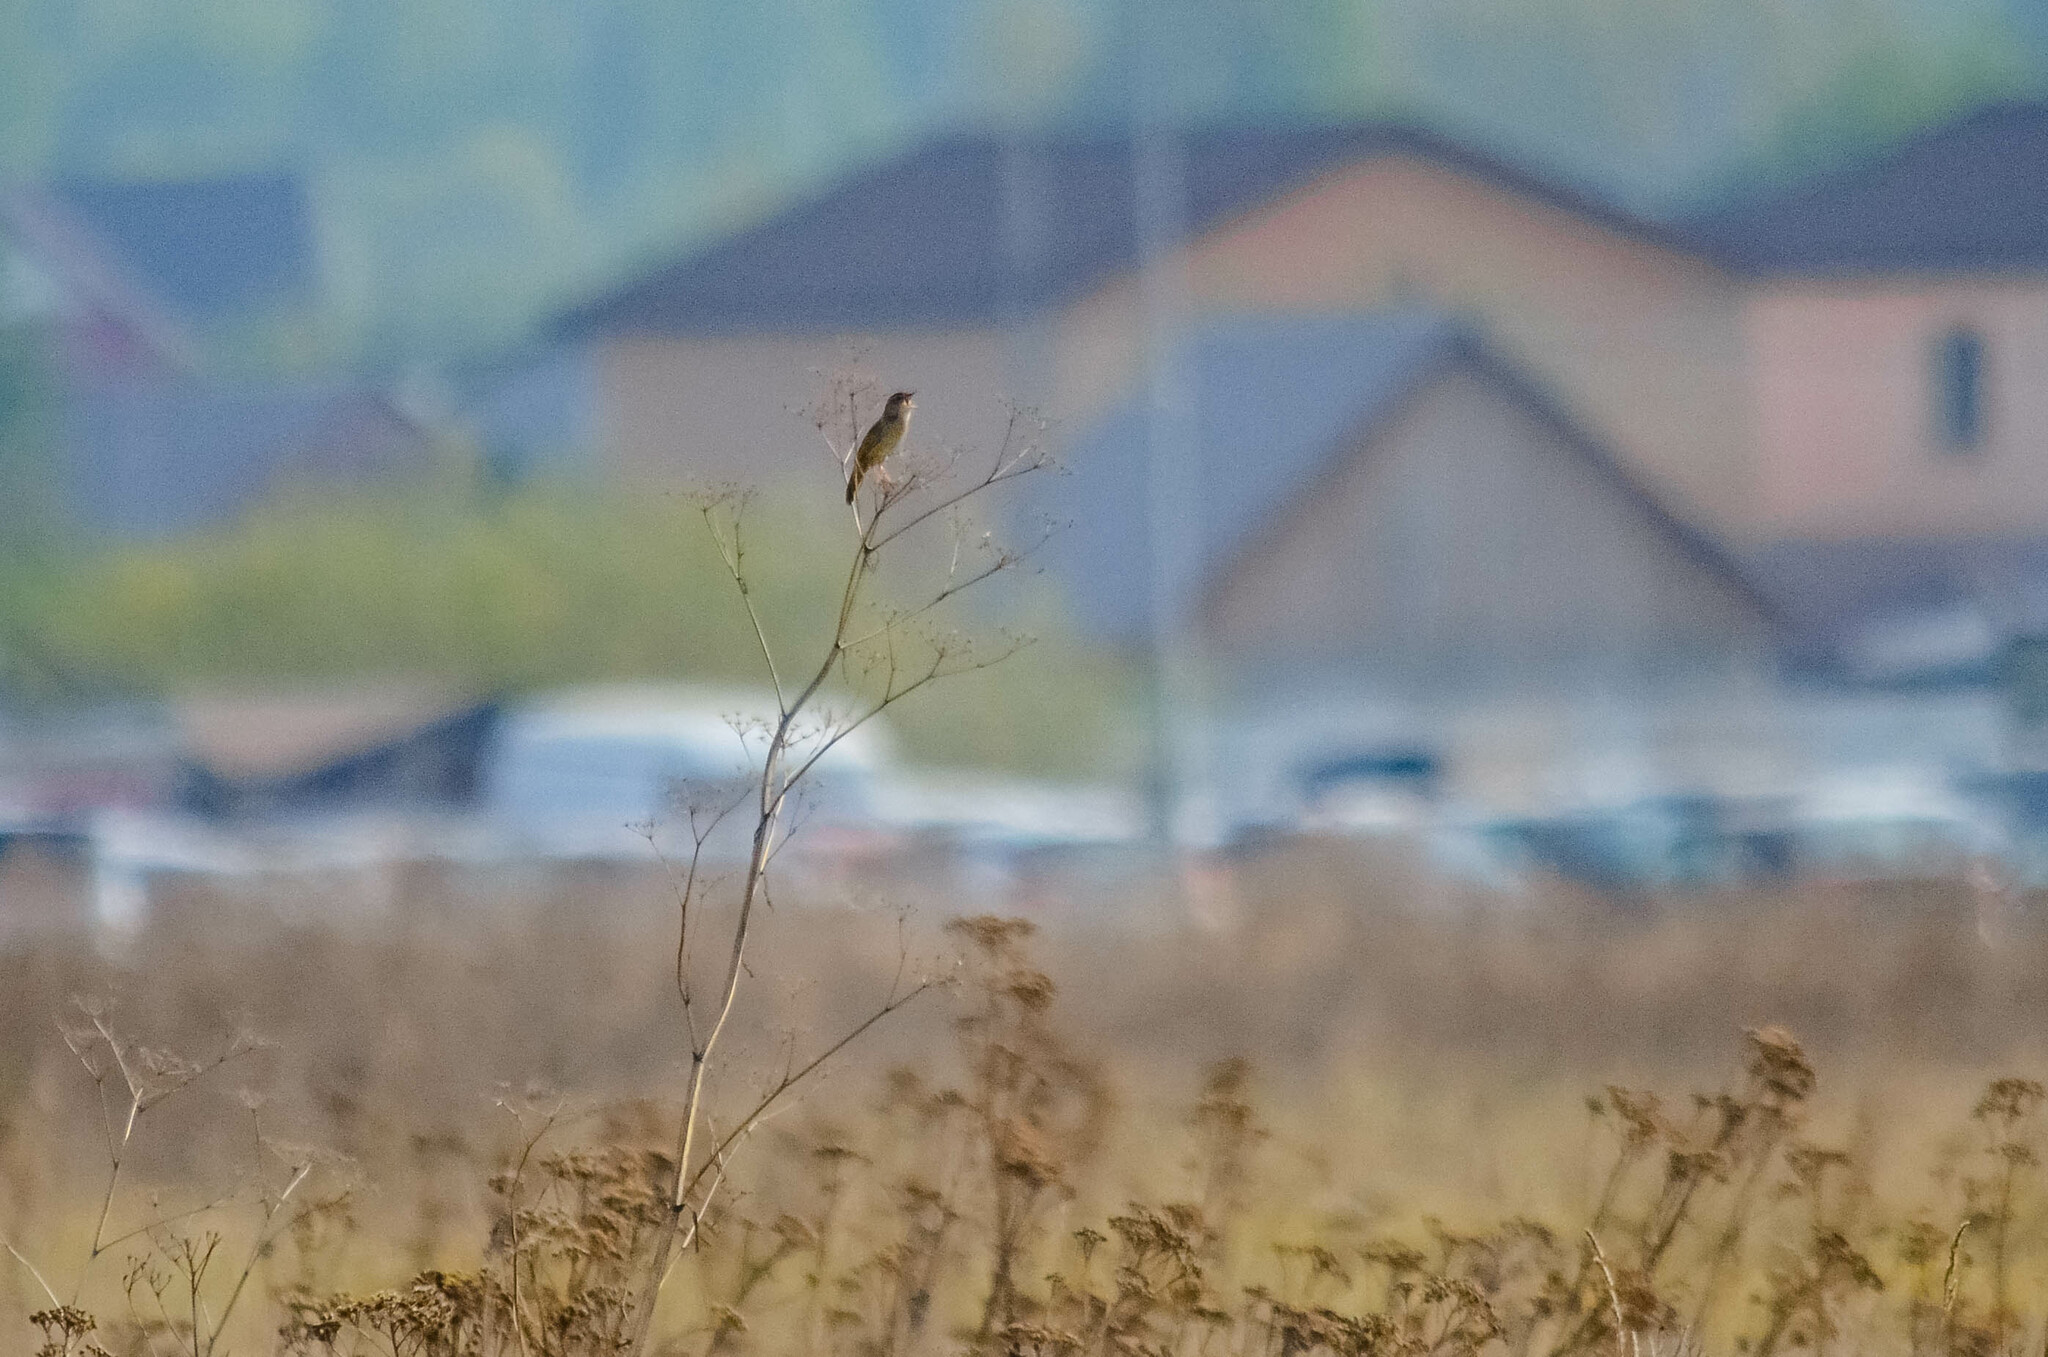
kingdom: Animalia
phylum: Chordata
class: Aves
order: Passeriformes
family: Locustellidae
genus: Locustella
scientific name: Locustella naevia
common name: Common grasshopper warbler
